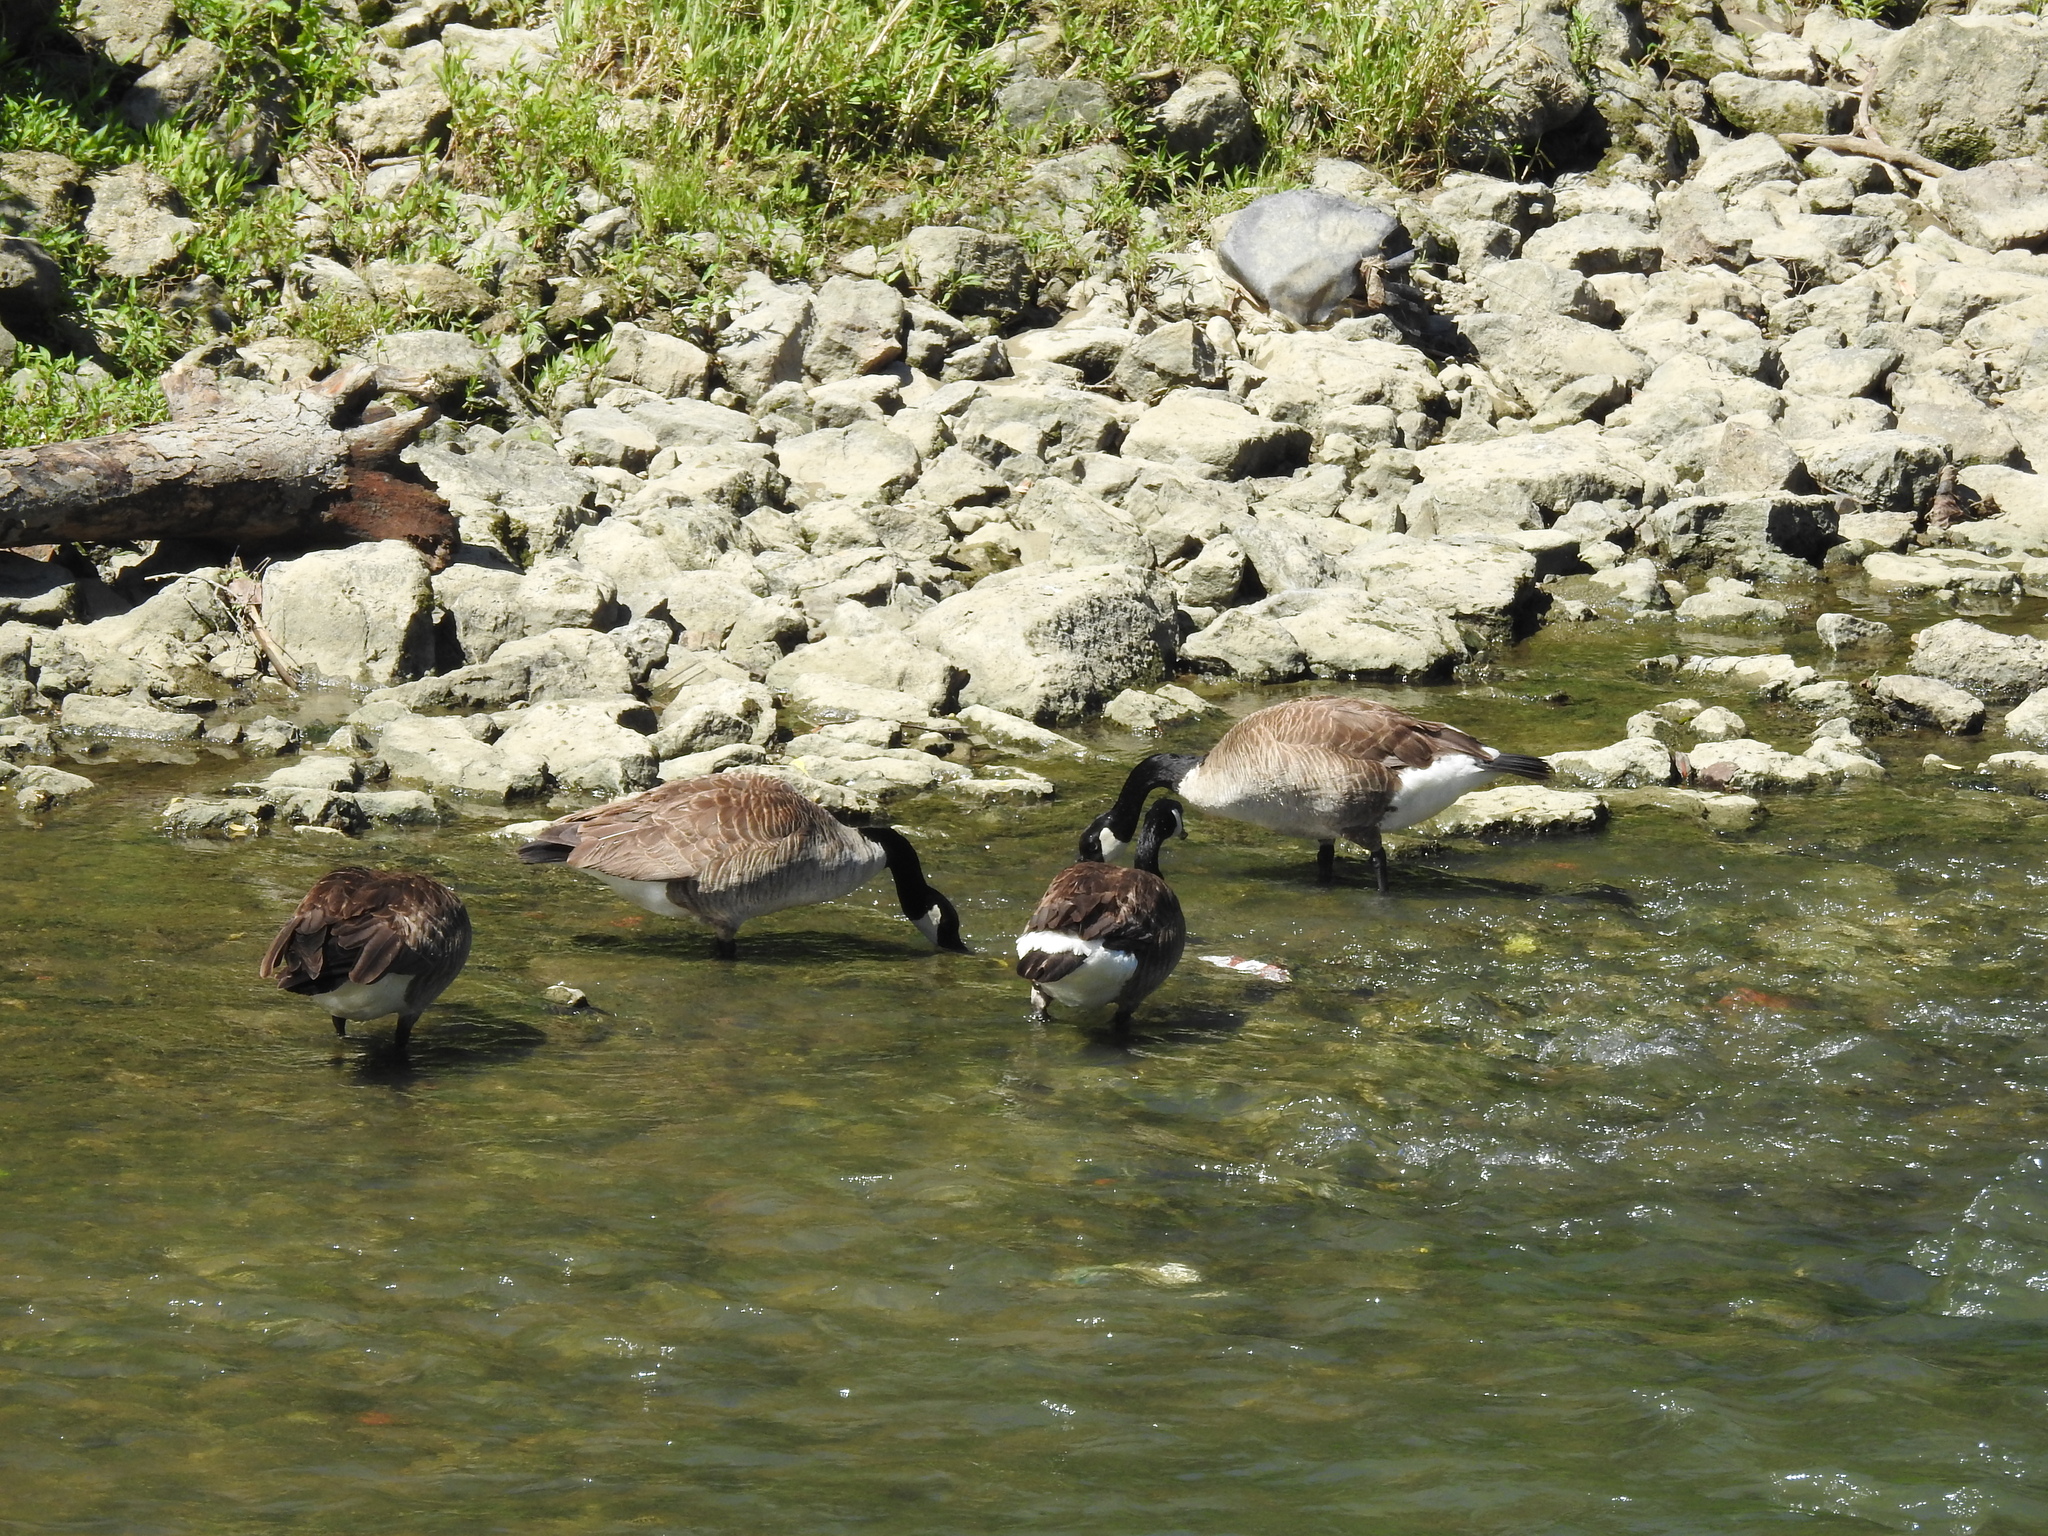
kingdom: Animalia
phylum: Chordata
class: Aves
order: Anseriformes
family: Anatidae
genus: Branta
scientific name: Branta canadensis
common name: Canada goose
